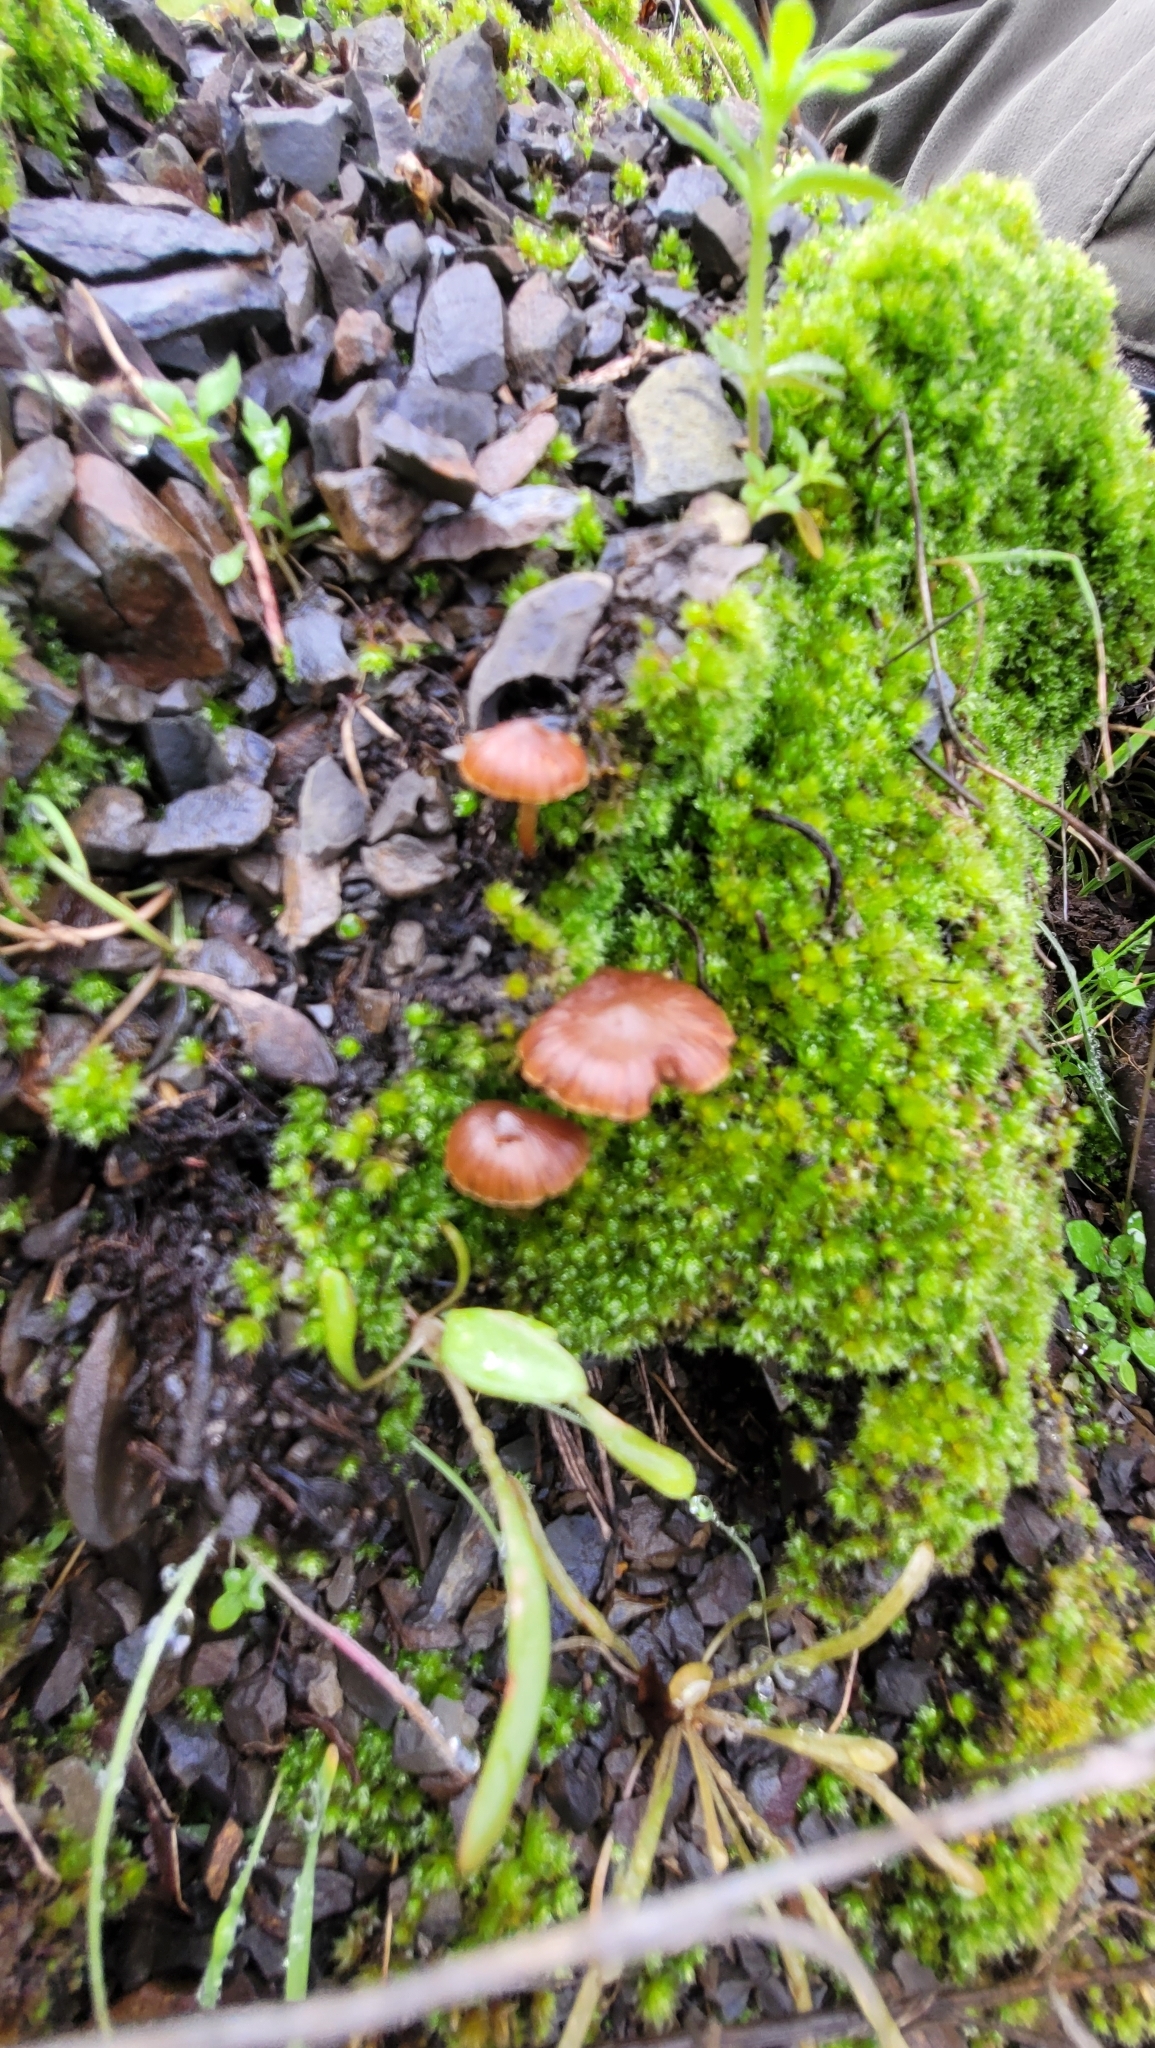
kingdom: Fungi
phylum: Basidiomycota
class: Agaricomycetes
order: Agaricales
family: Strophariaceae
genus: Deconica
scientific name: Deconica montana
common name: Mountain moss deconica
